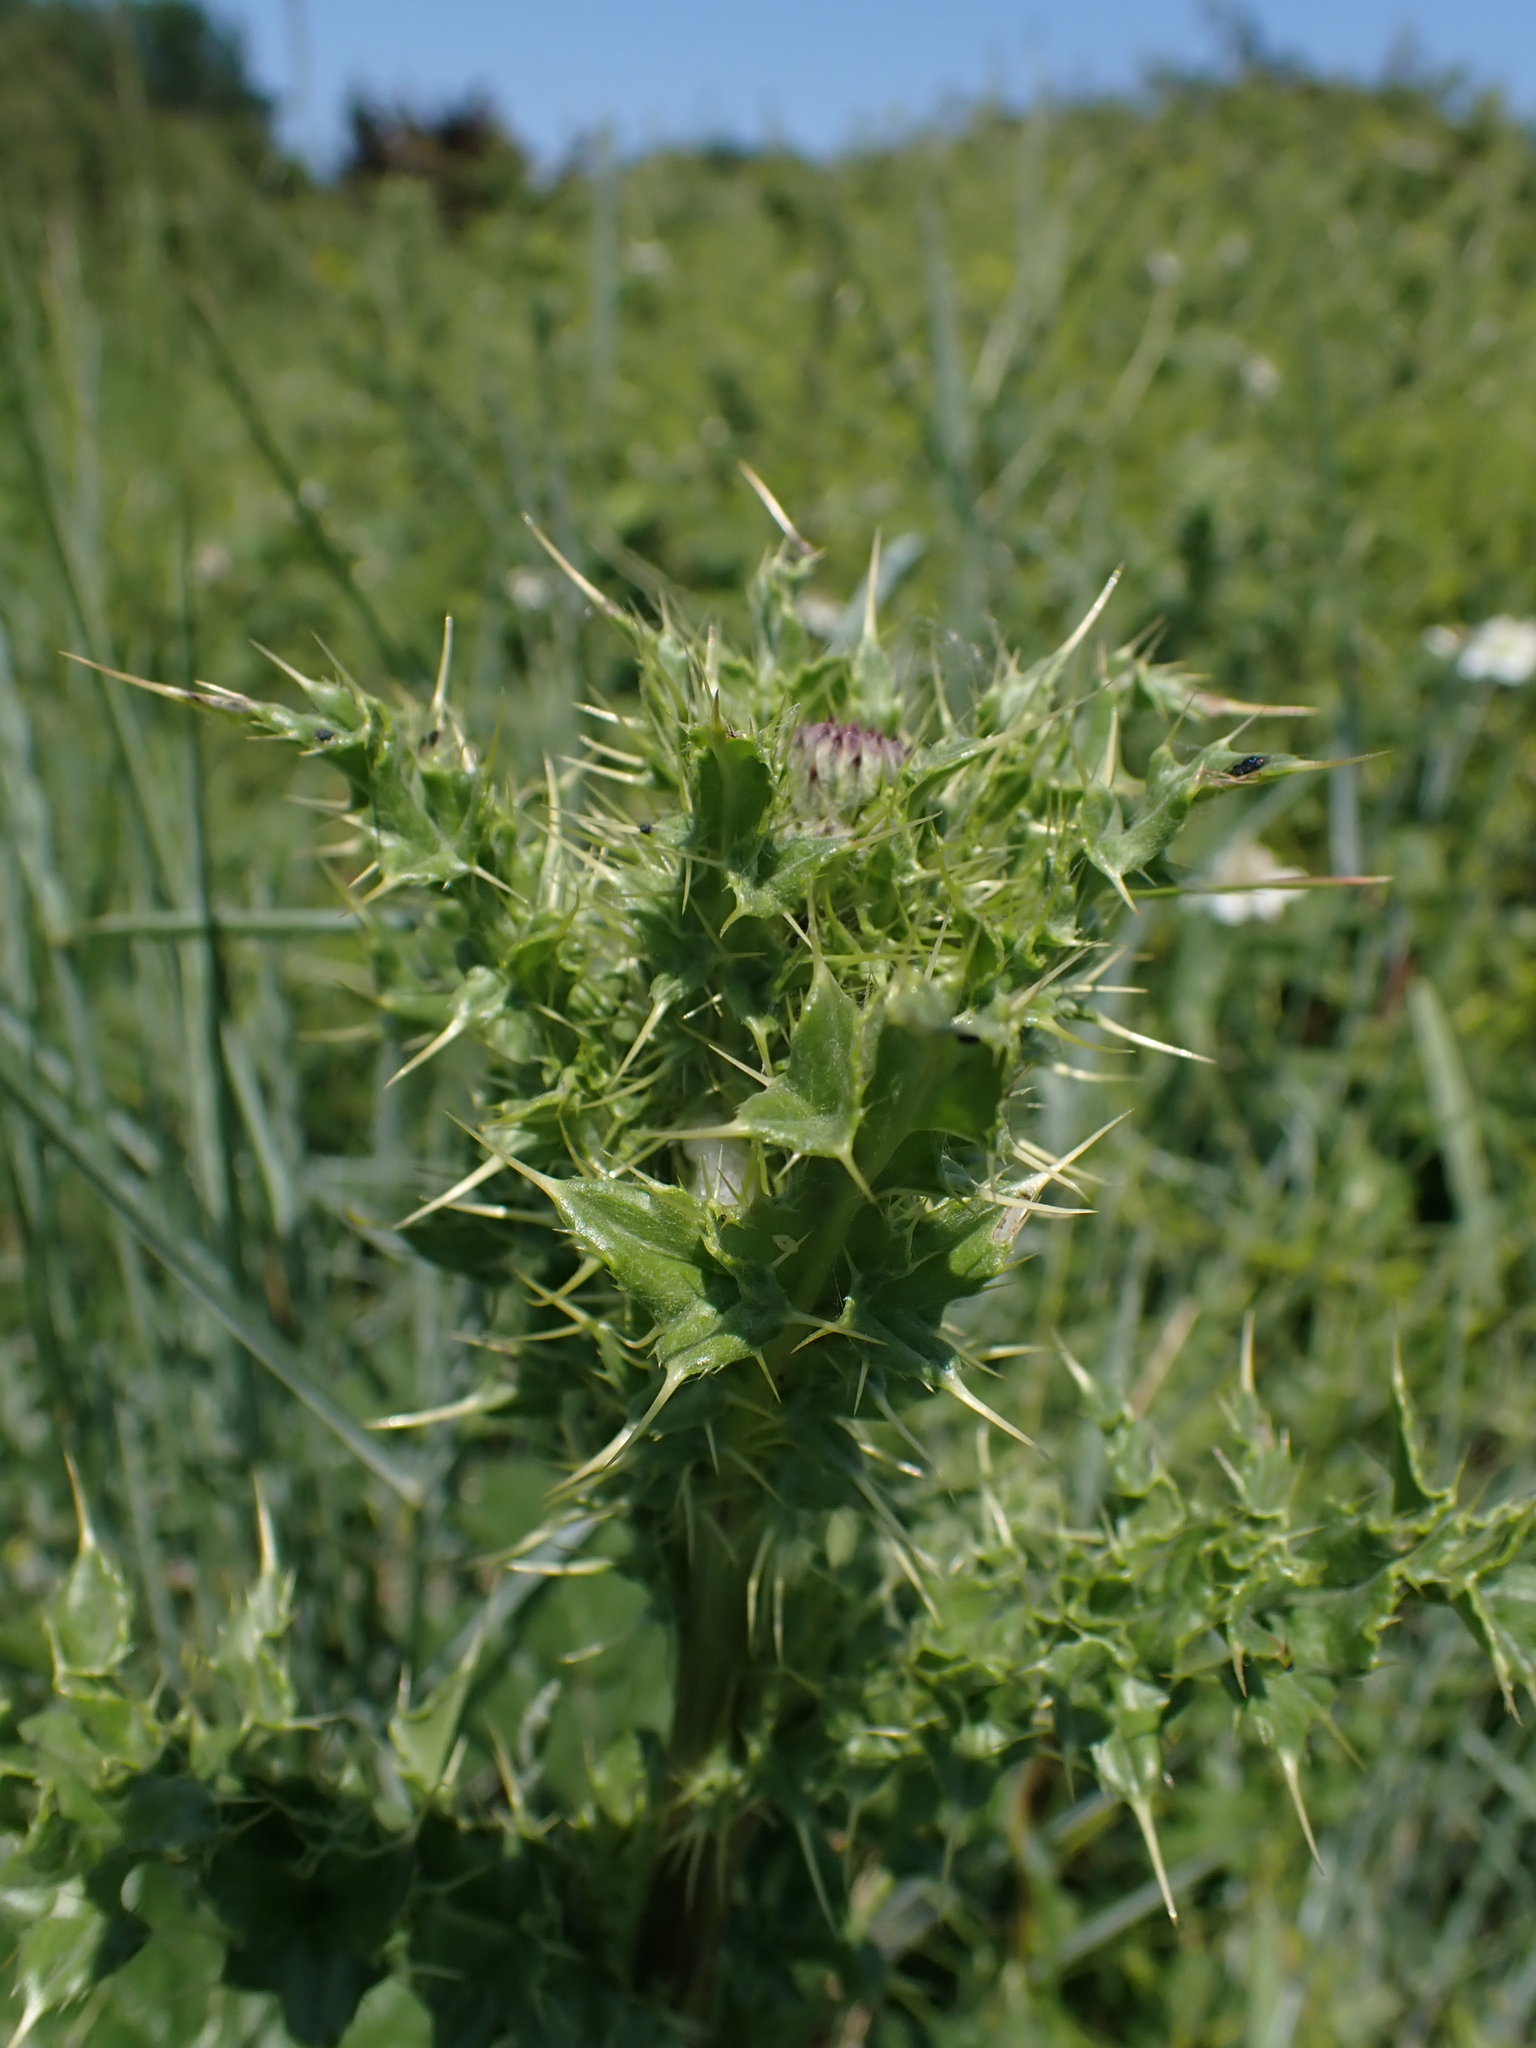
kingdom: Plantae
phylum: Tracheophyta
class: Magnoliopsida
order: Asterales
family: Asteraceae
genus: Cirsium
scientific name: Cirsium arvense
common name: Creeping thistle
